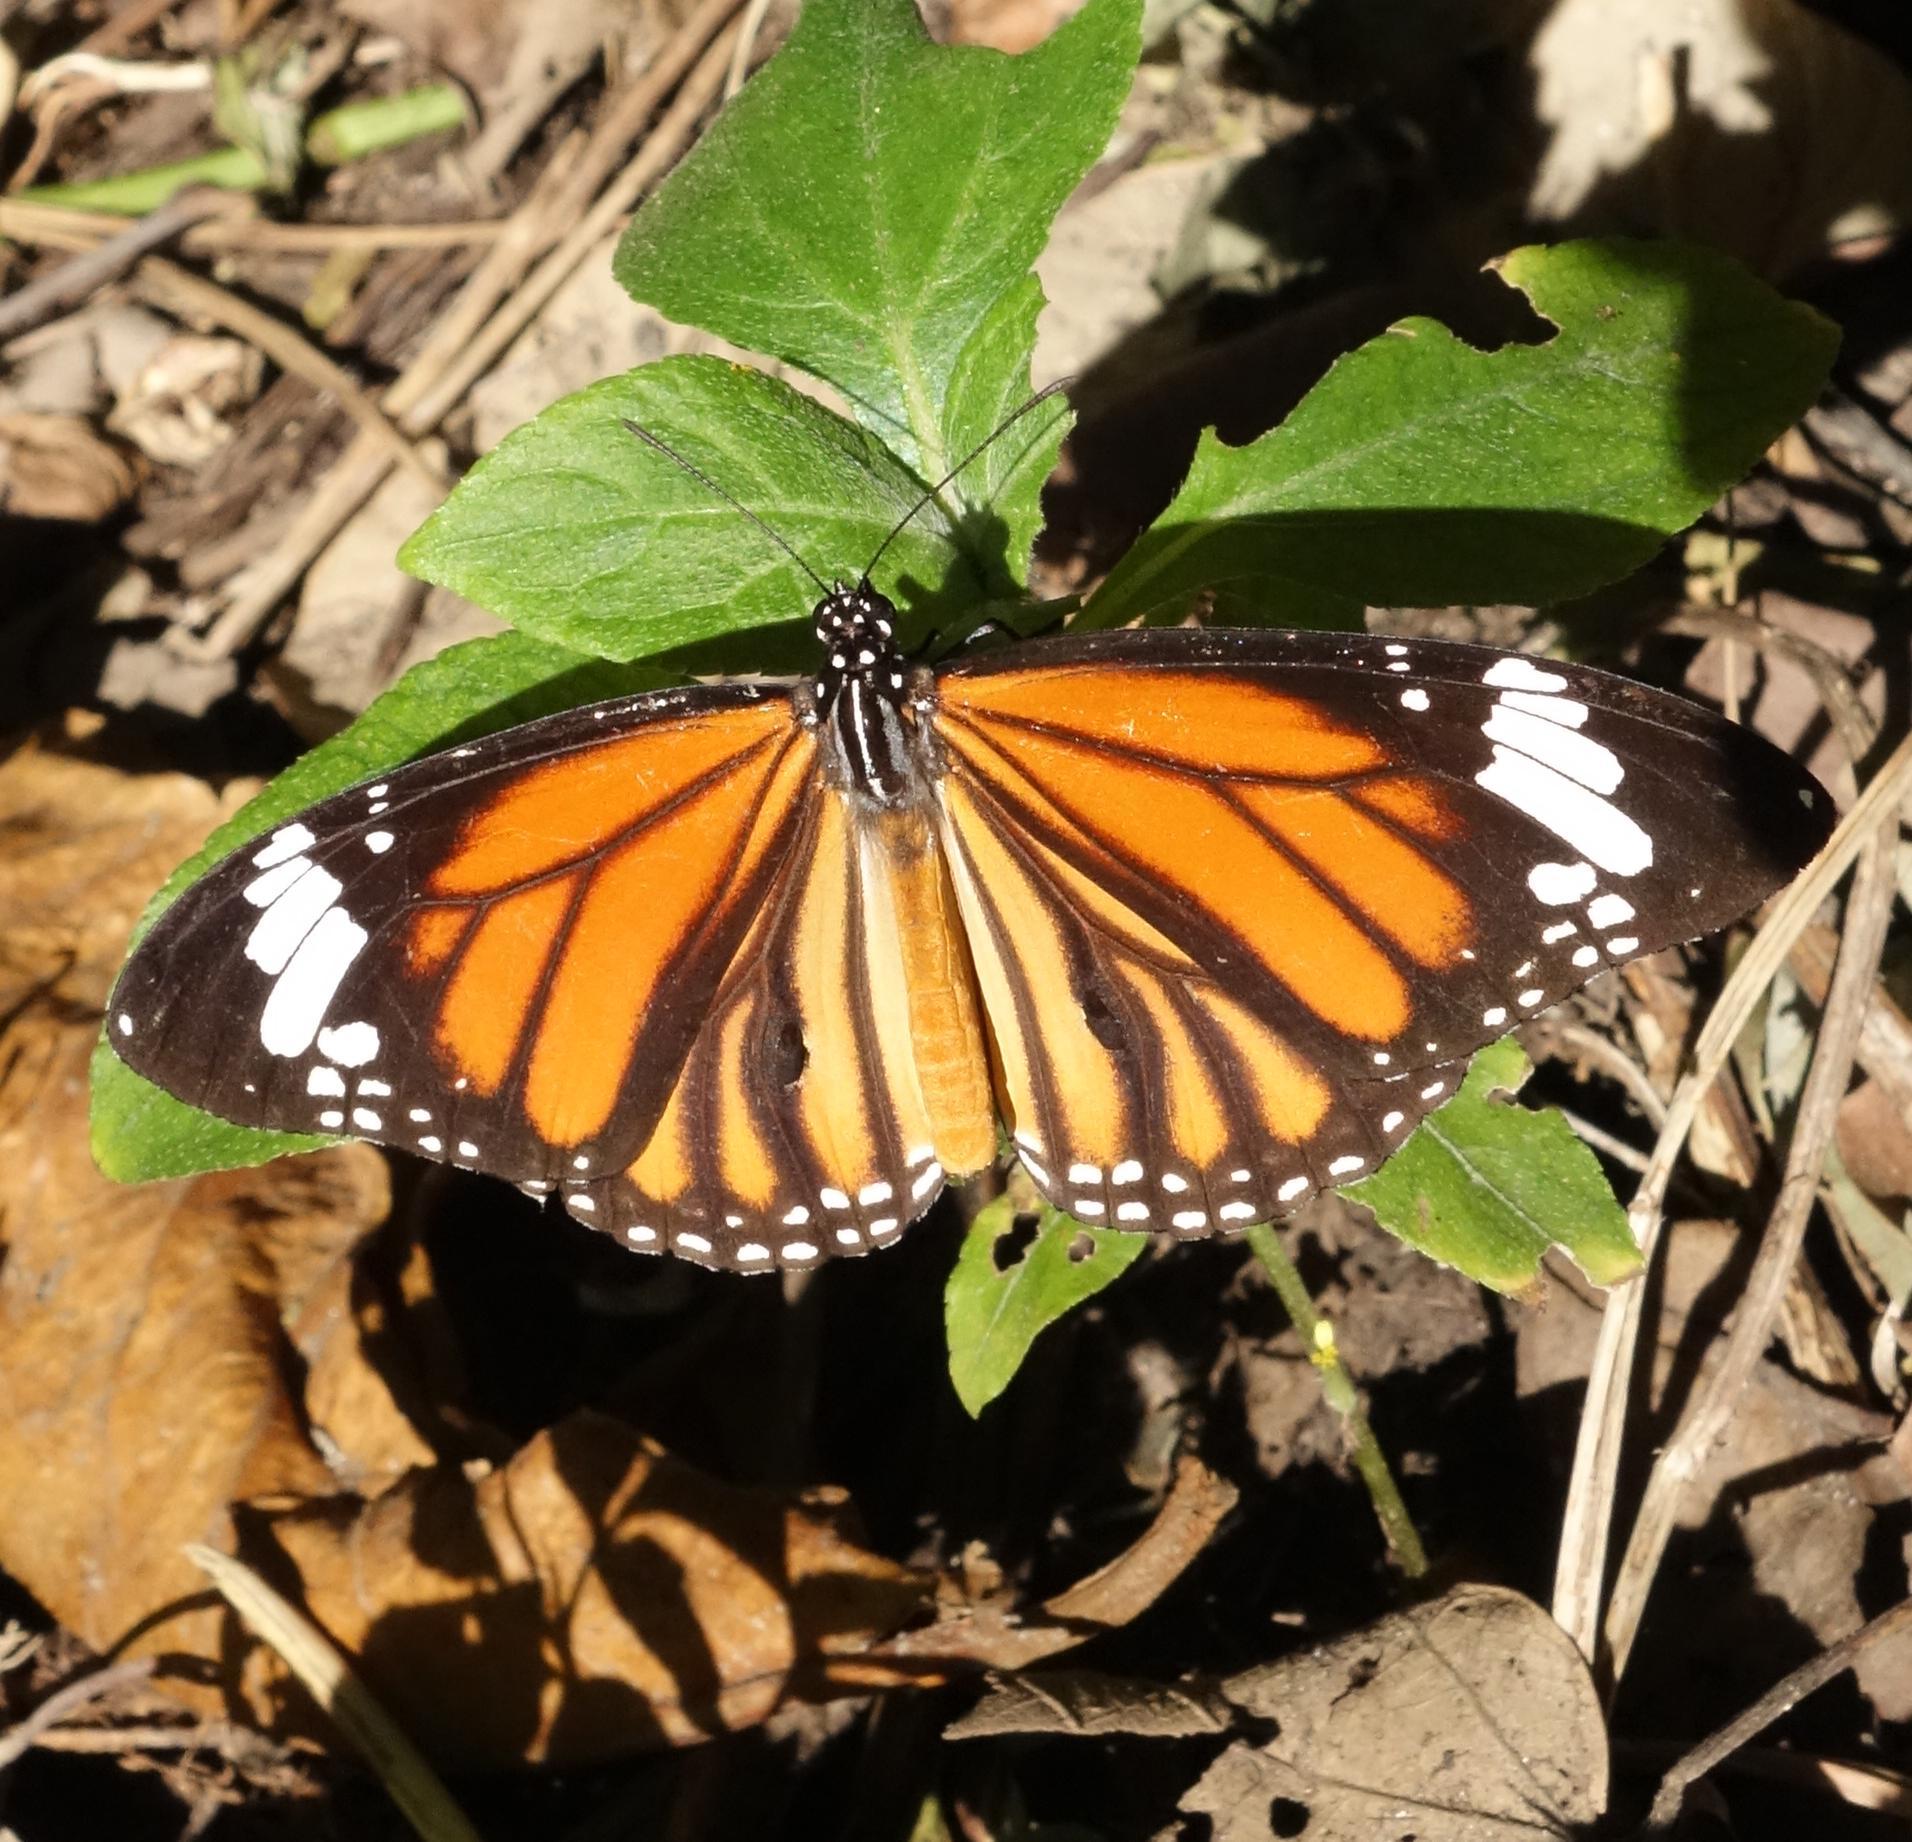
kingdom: Animalia
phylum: Arthropoda
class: Insecta
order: Lepidoptera
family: Nymphalidae
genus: Danaus
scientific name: Danaus genutia
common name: Common tiger butterfly
